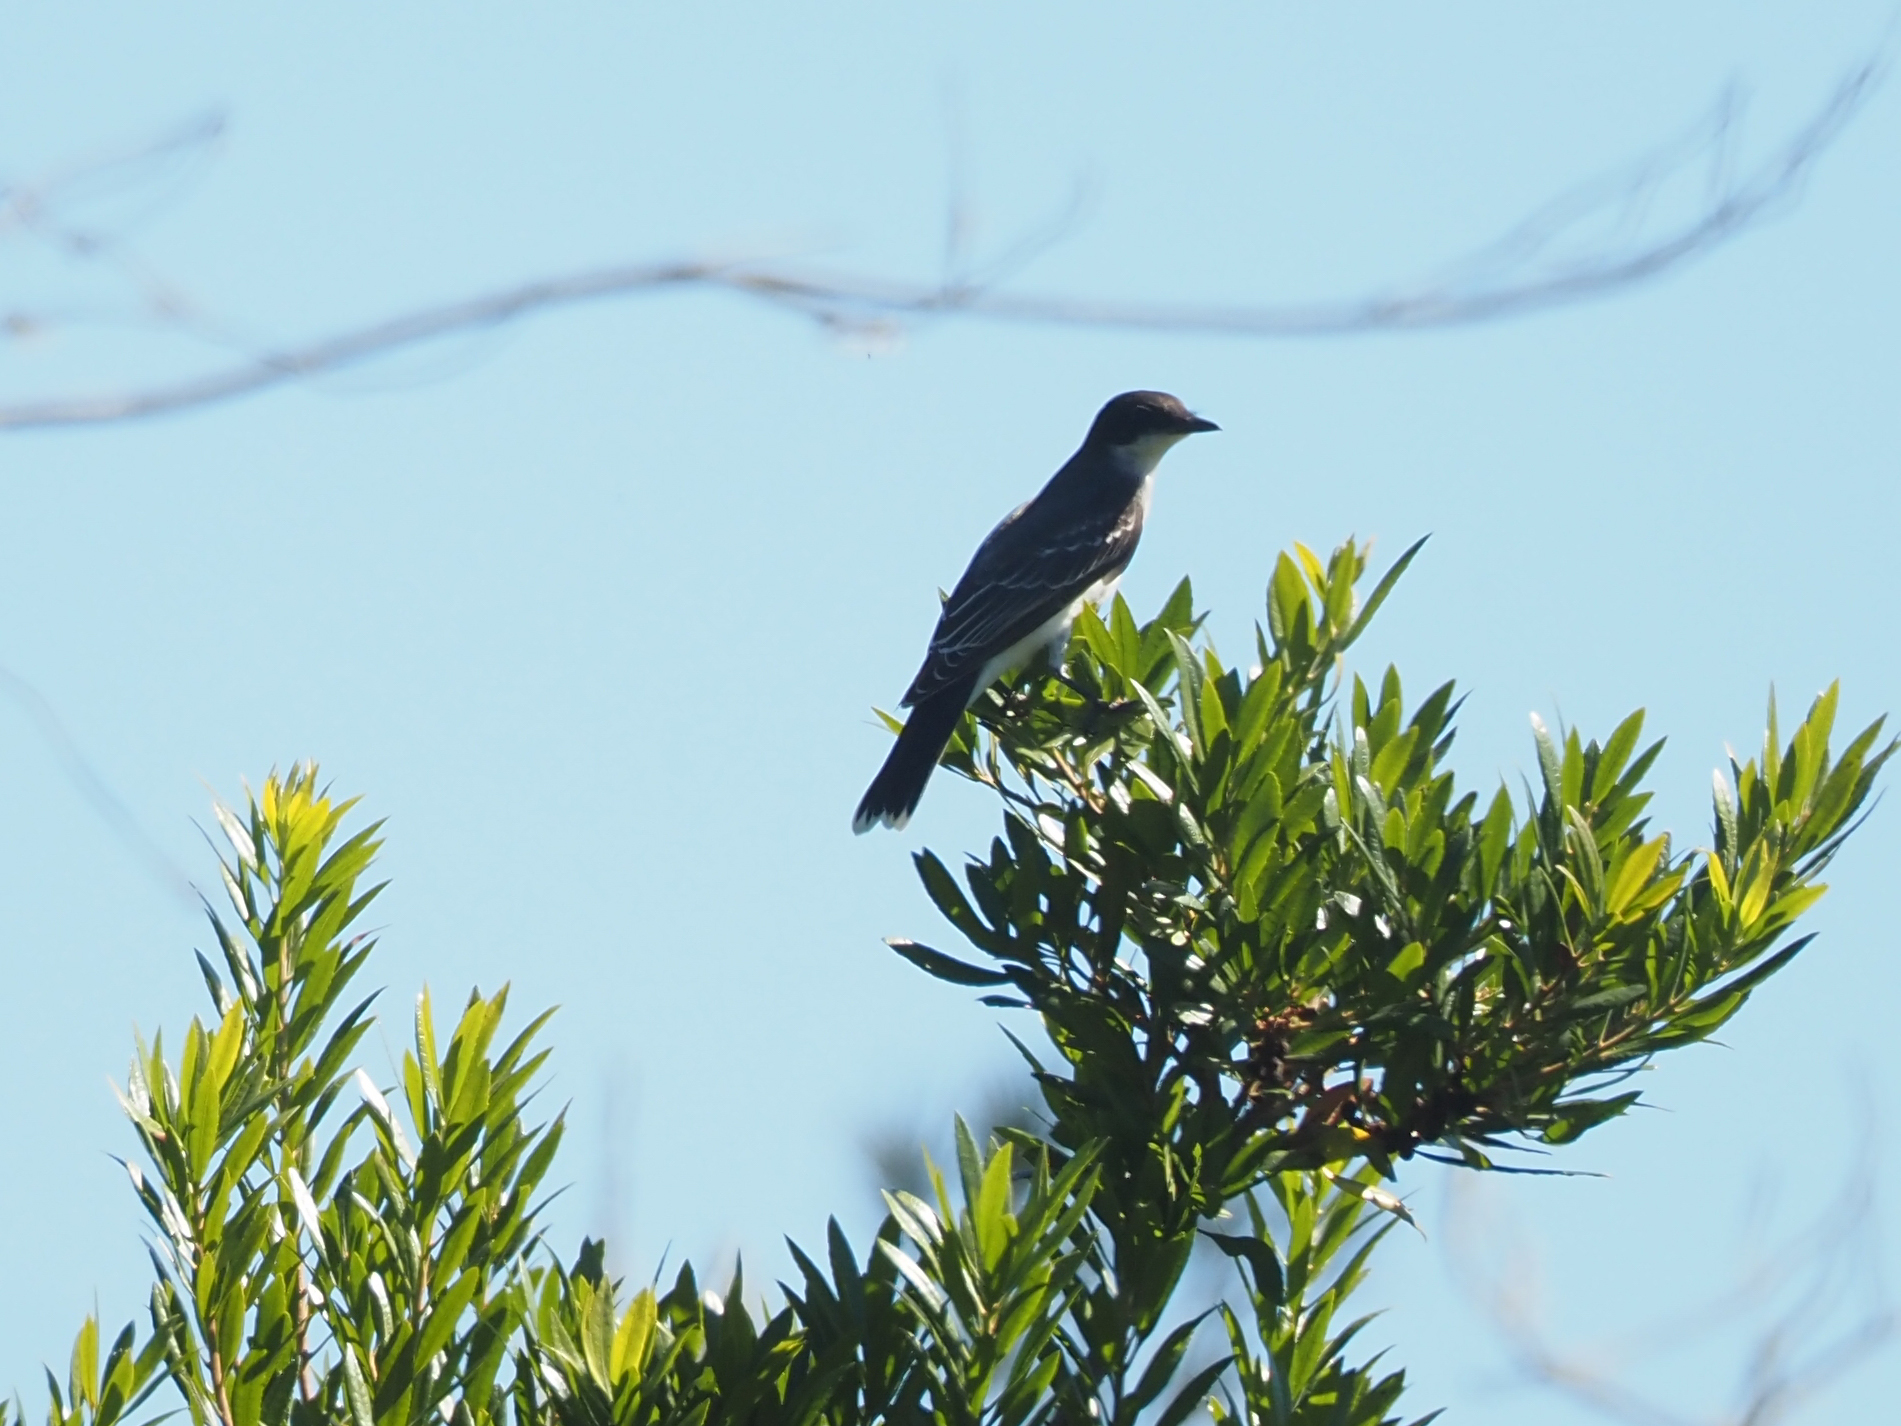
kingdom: Animalia
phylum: Chordata
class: Aves
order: Passeriformes
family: Tyrannidae
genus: Tyrannus
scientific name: Tyrannus tyrannus
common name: Eastern kingbird
